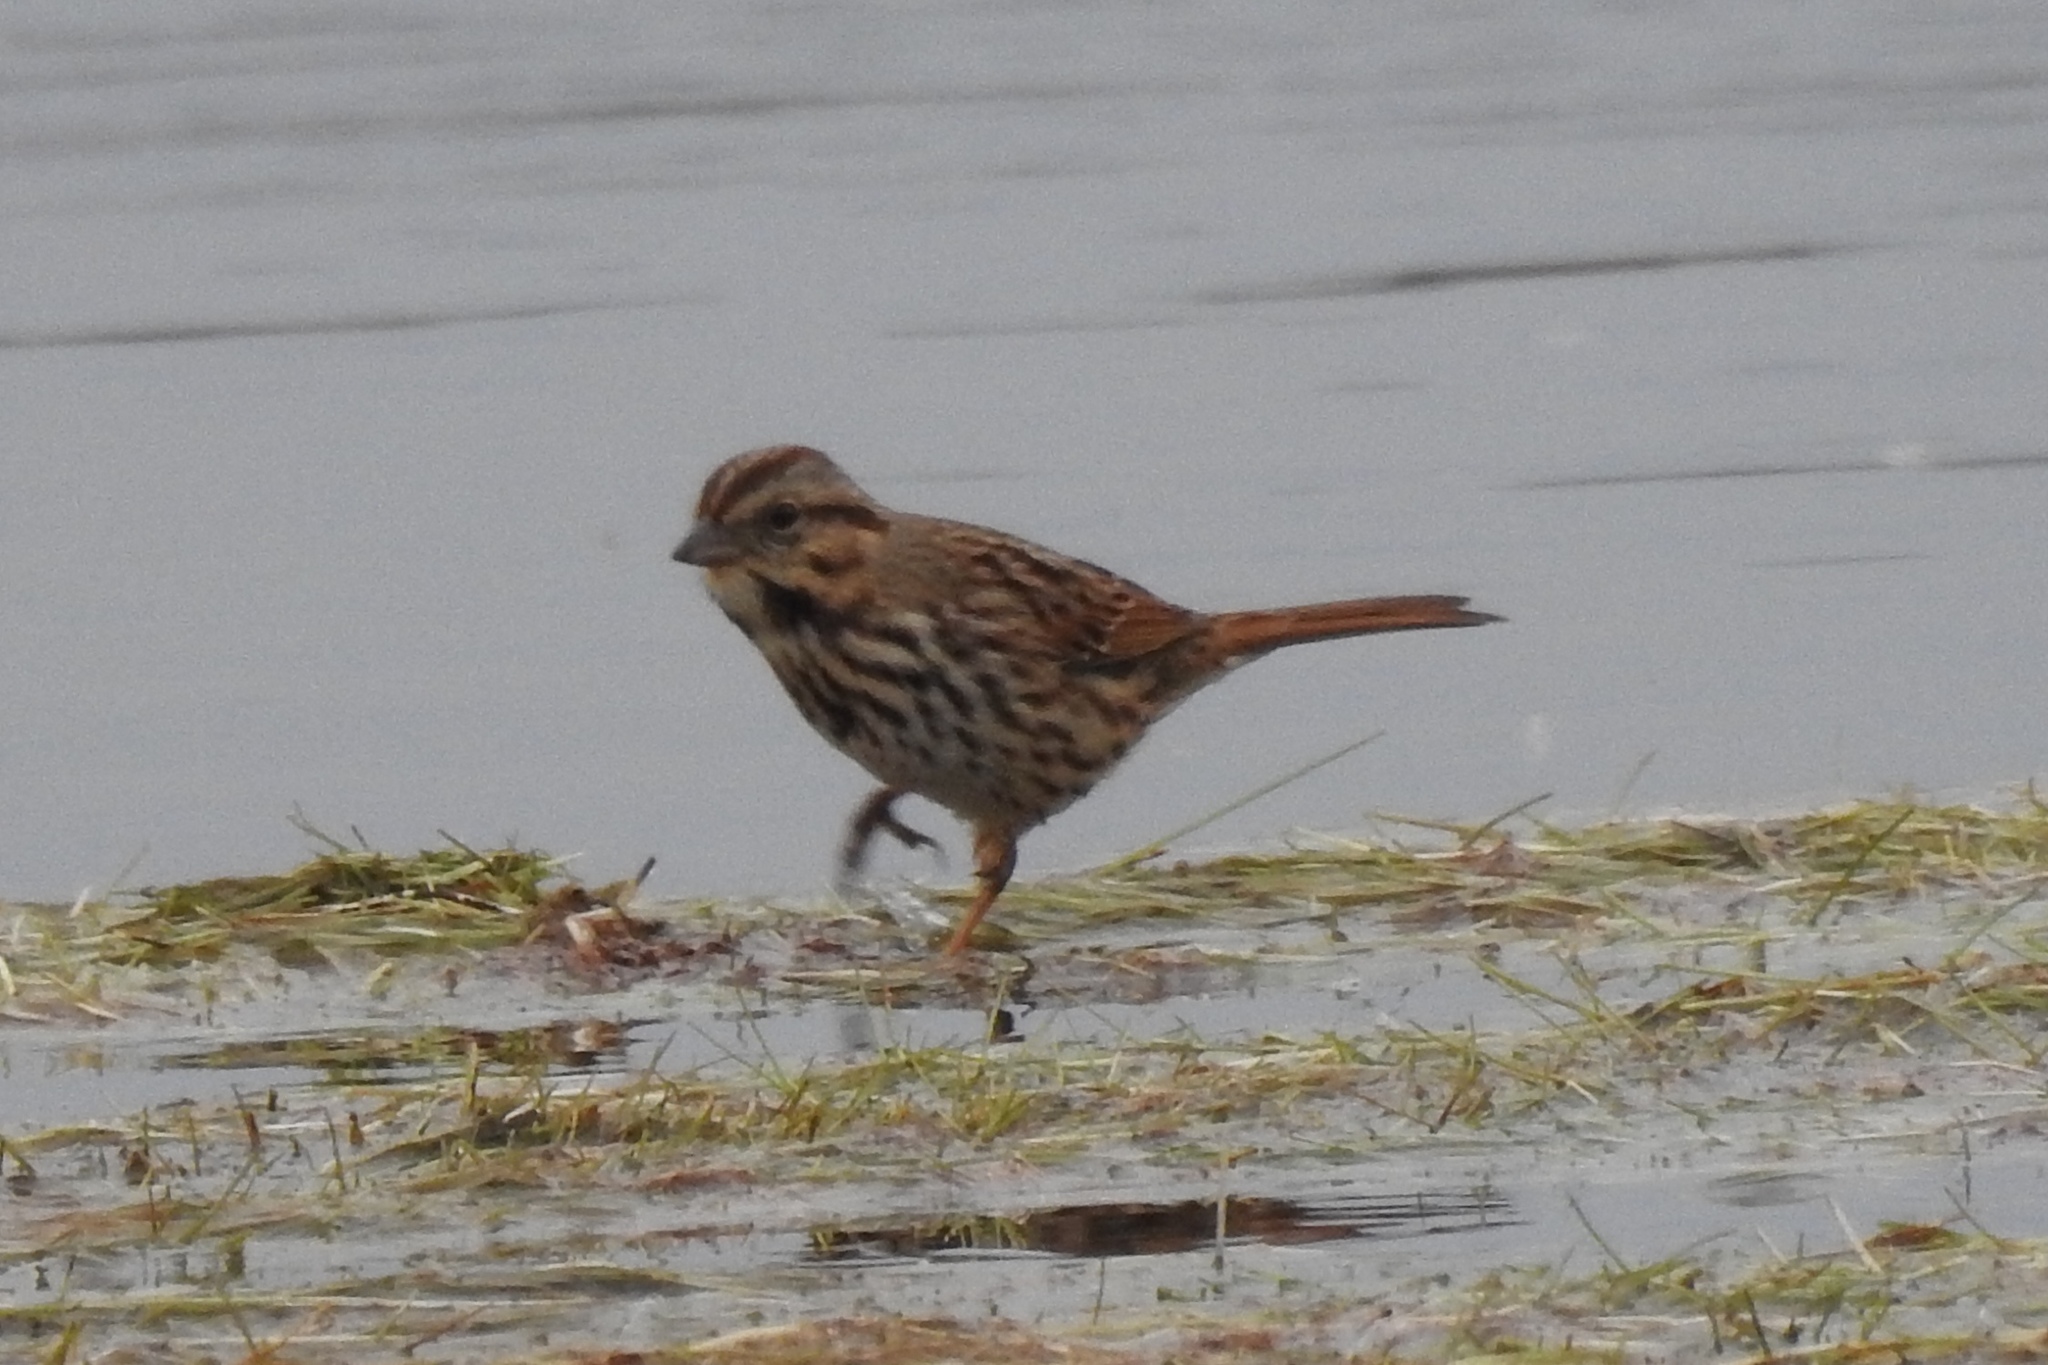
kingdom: Animalia
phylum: Chordata
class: Aves
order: Passeriformes
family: Passerellidae
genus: Melospiza
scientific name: Melospiza melodia
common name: Song sparrow
